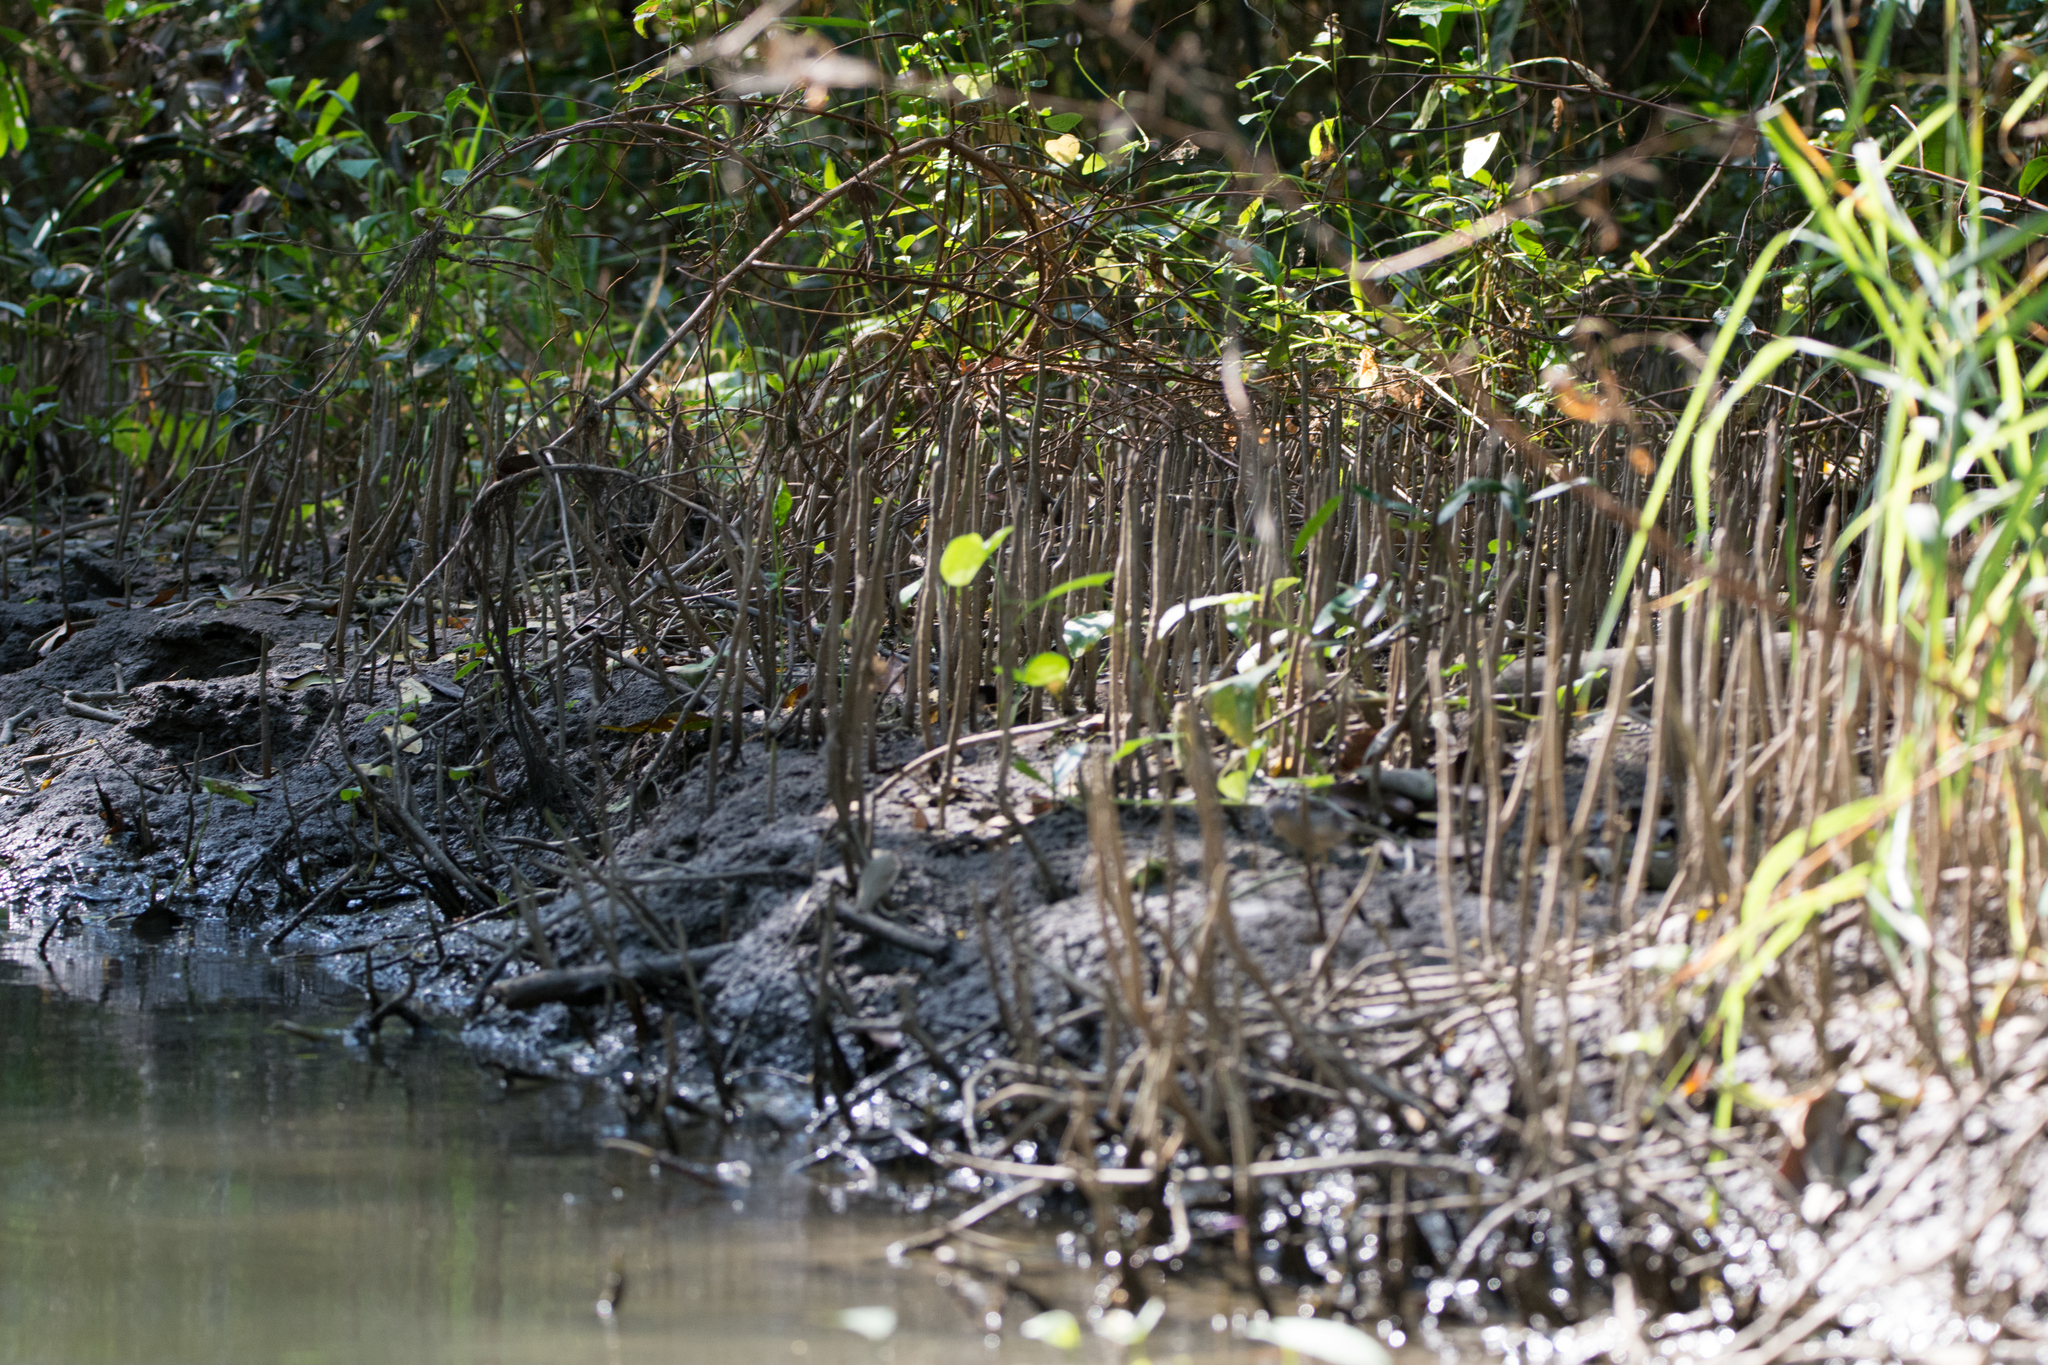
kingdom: Plantae
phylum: Tracheophyta
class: Magnoliopsida
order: Malpighiales
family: Rhizophoraceae
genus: Rhizophora
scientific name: Rhizophora mangle
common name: Red mangrove
